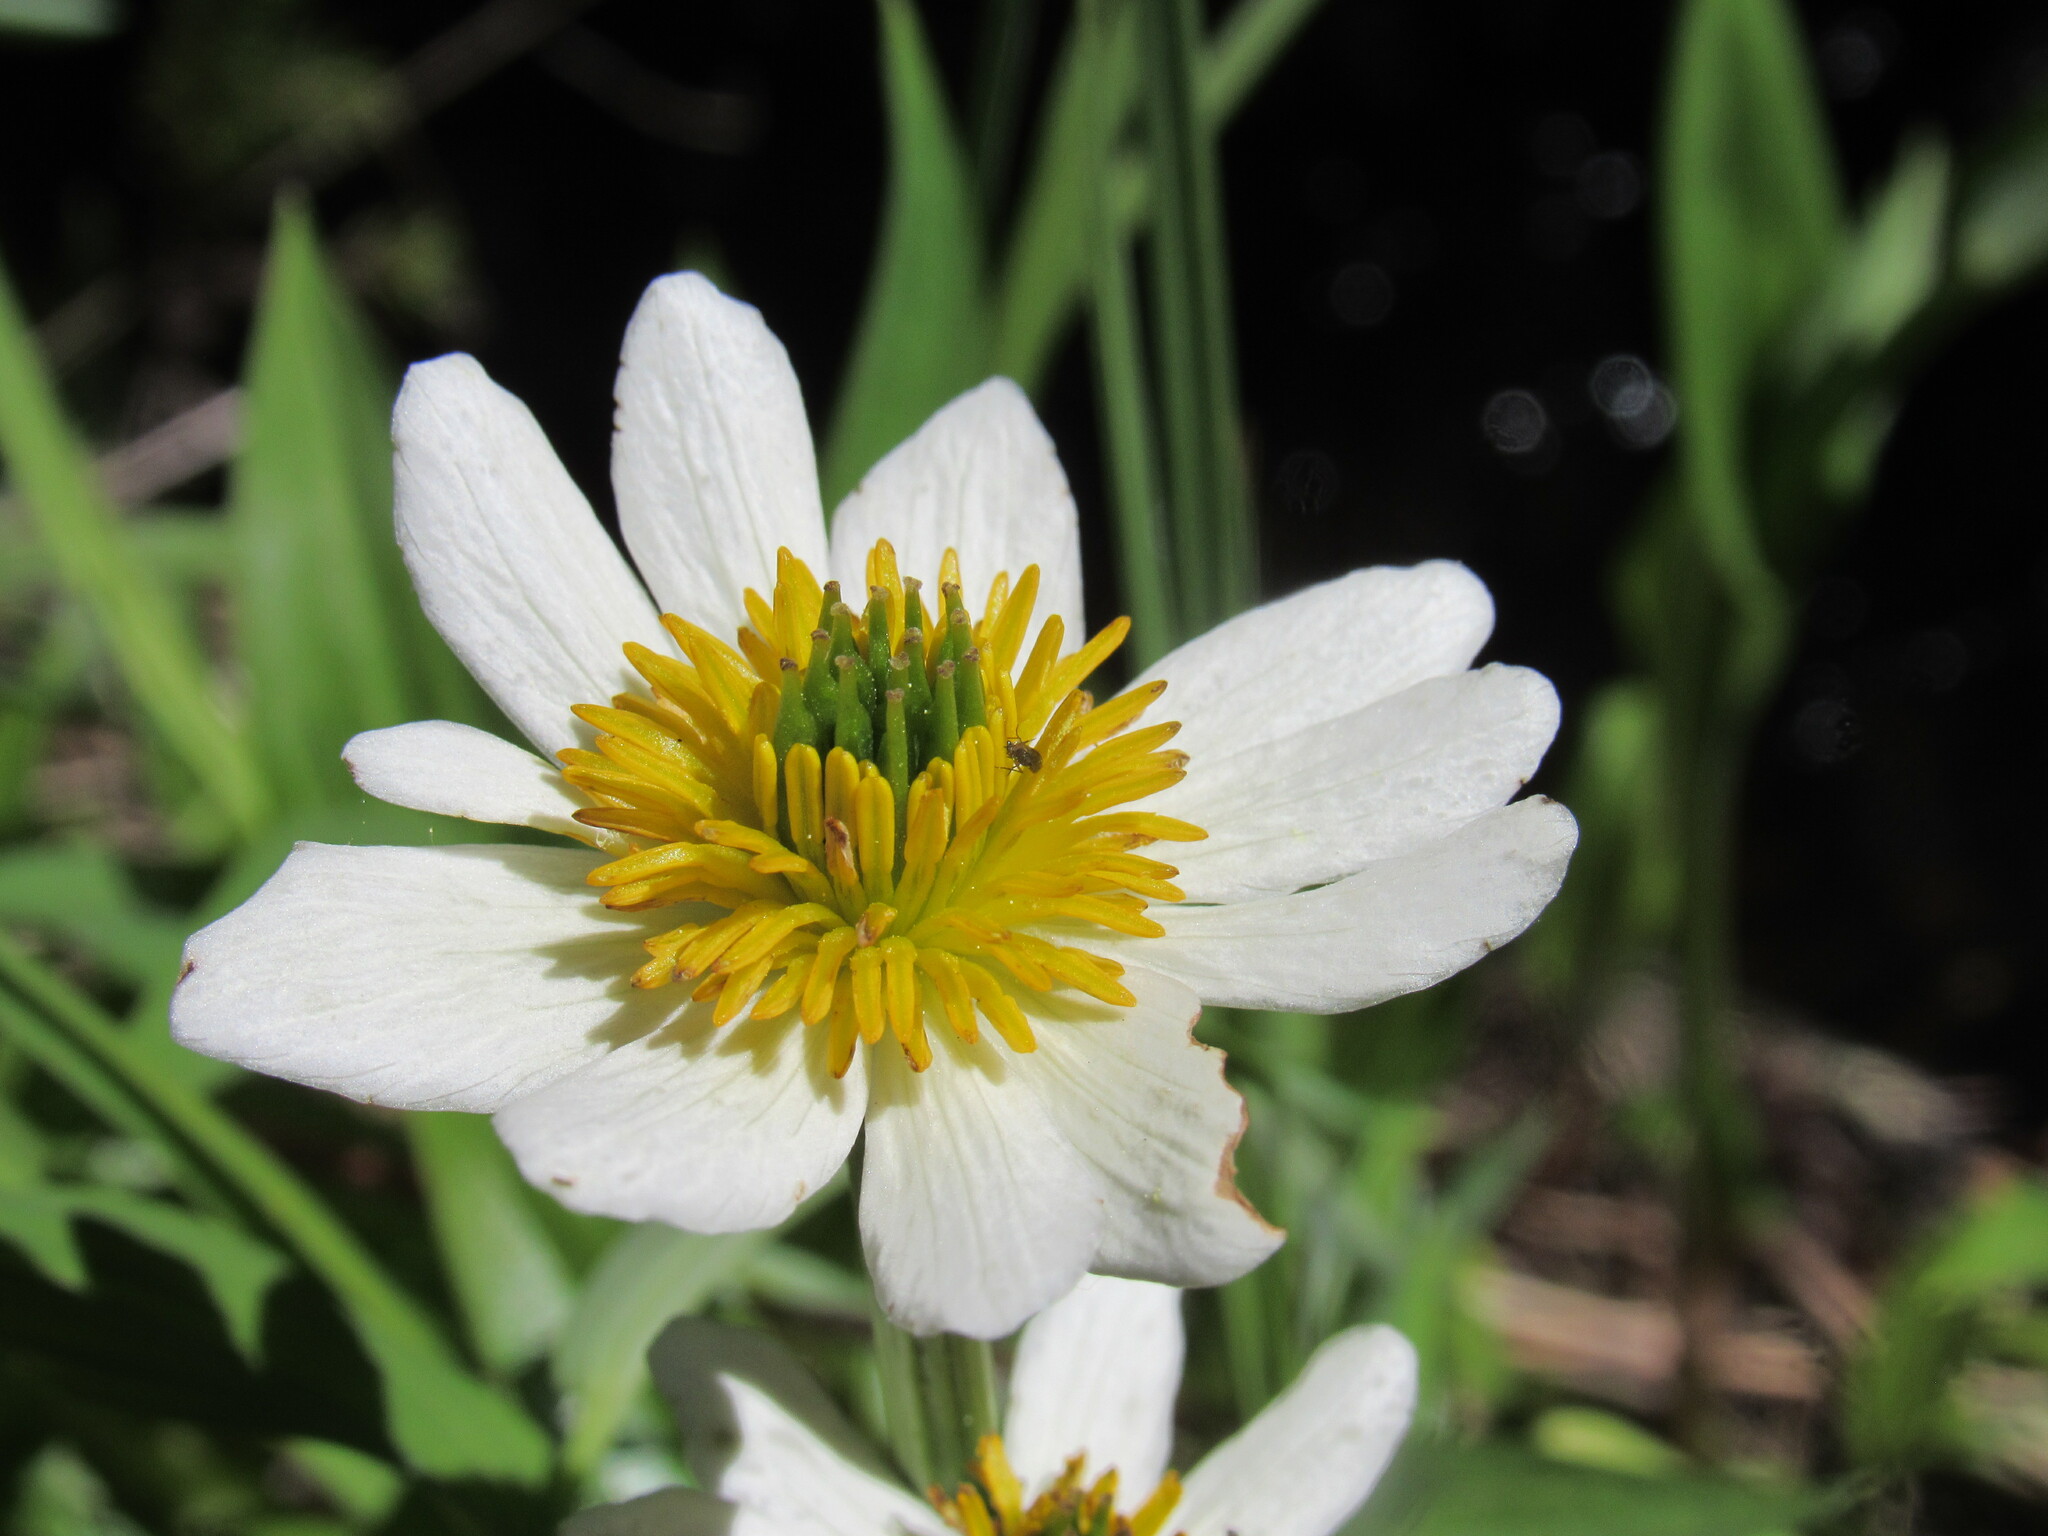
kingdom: Plantae
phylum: Tracheophyta
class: Magnoliopsida
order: Ranunculales
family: Ranunculaceae
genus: Caltha
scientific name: Caltha leptosepala
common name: Elkslip
